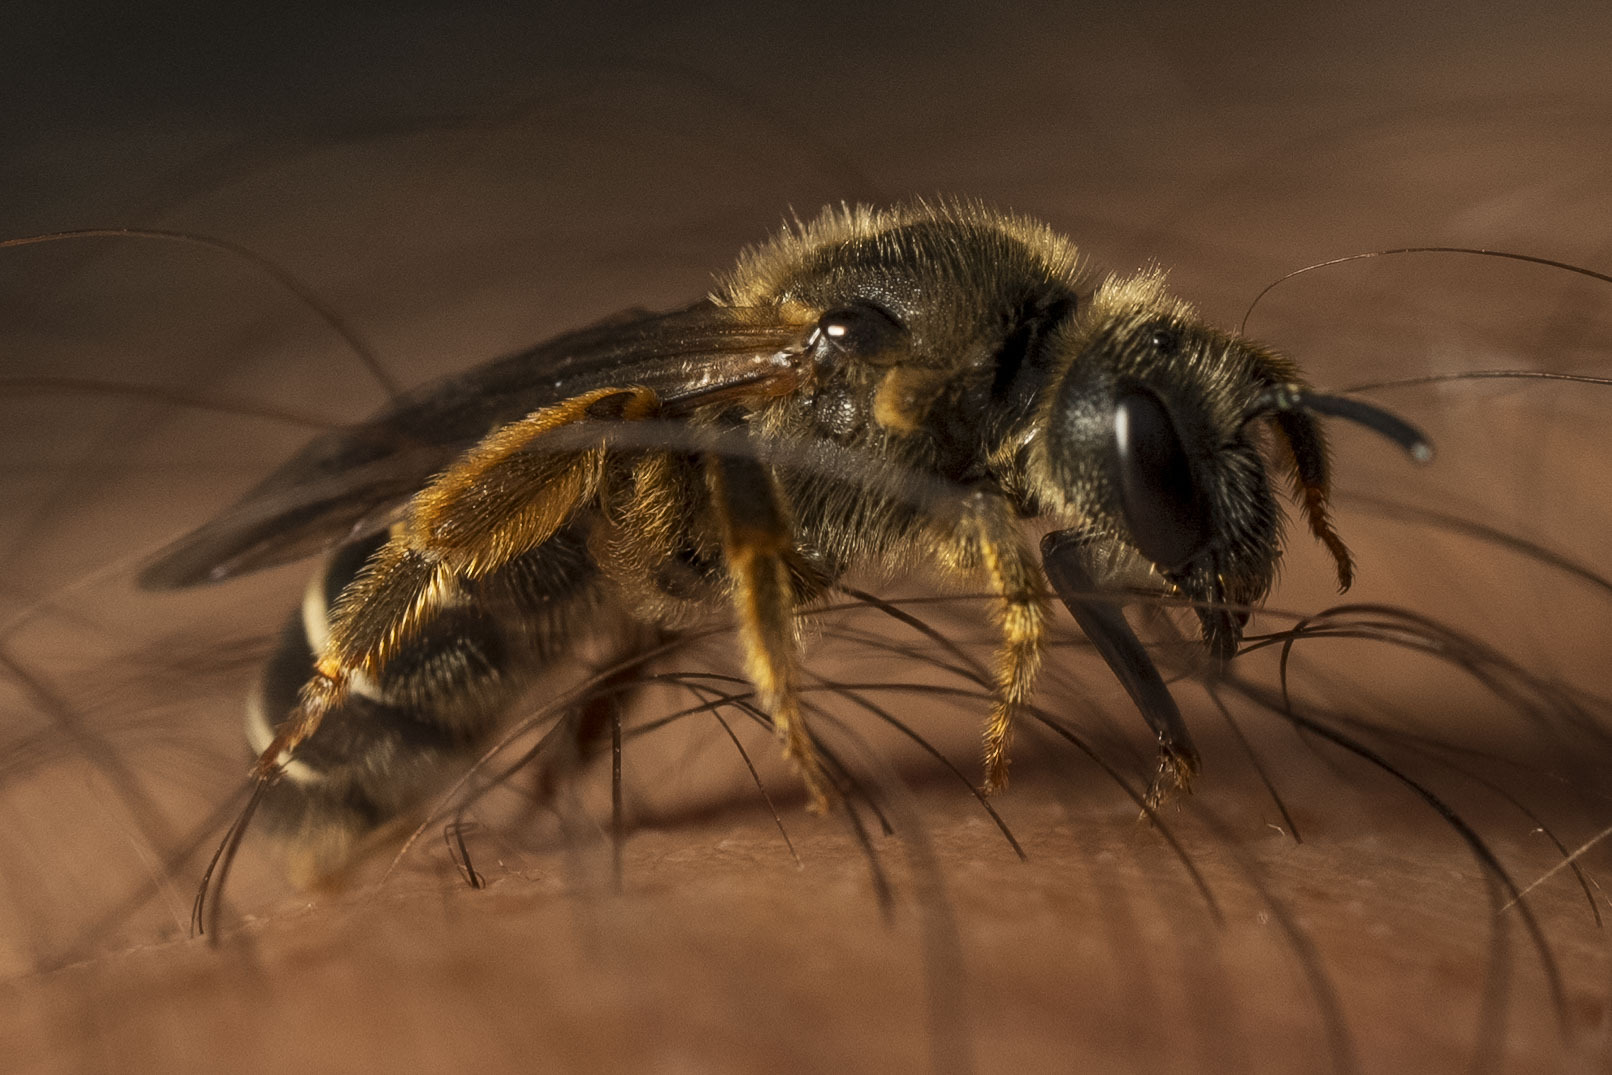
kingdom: Animalia
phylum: Arthropoda
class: Insecta
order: Hymenoptera
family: Halictidae
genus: Halictus
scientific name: Halictus rubicundus
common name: Orange-legged furrow bee
